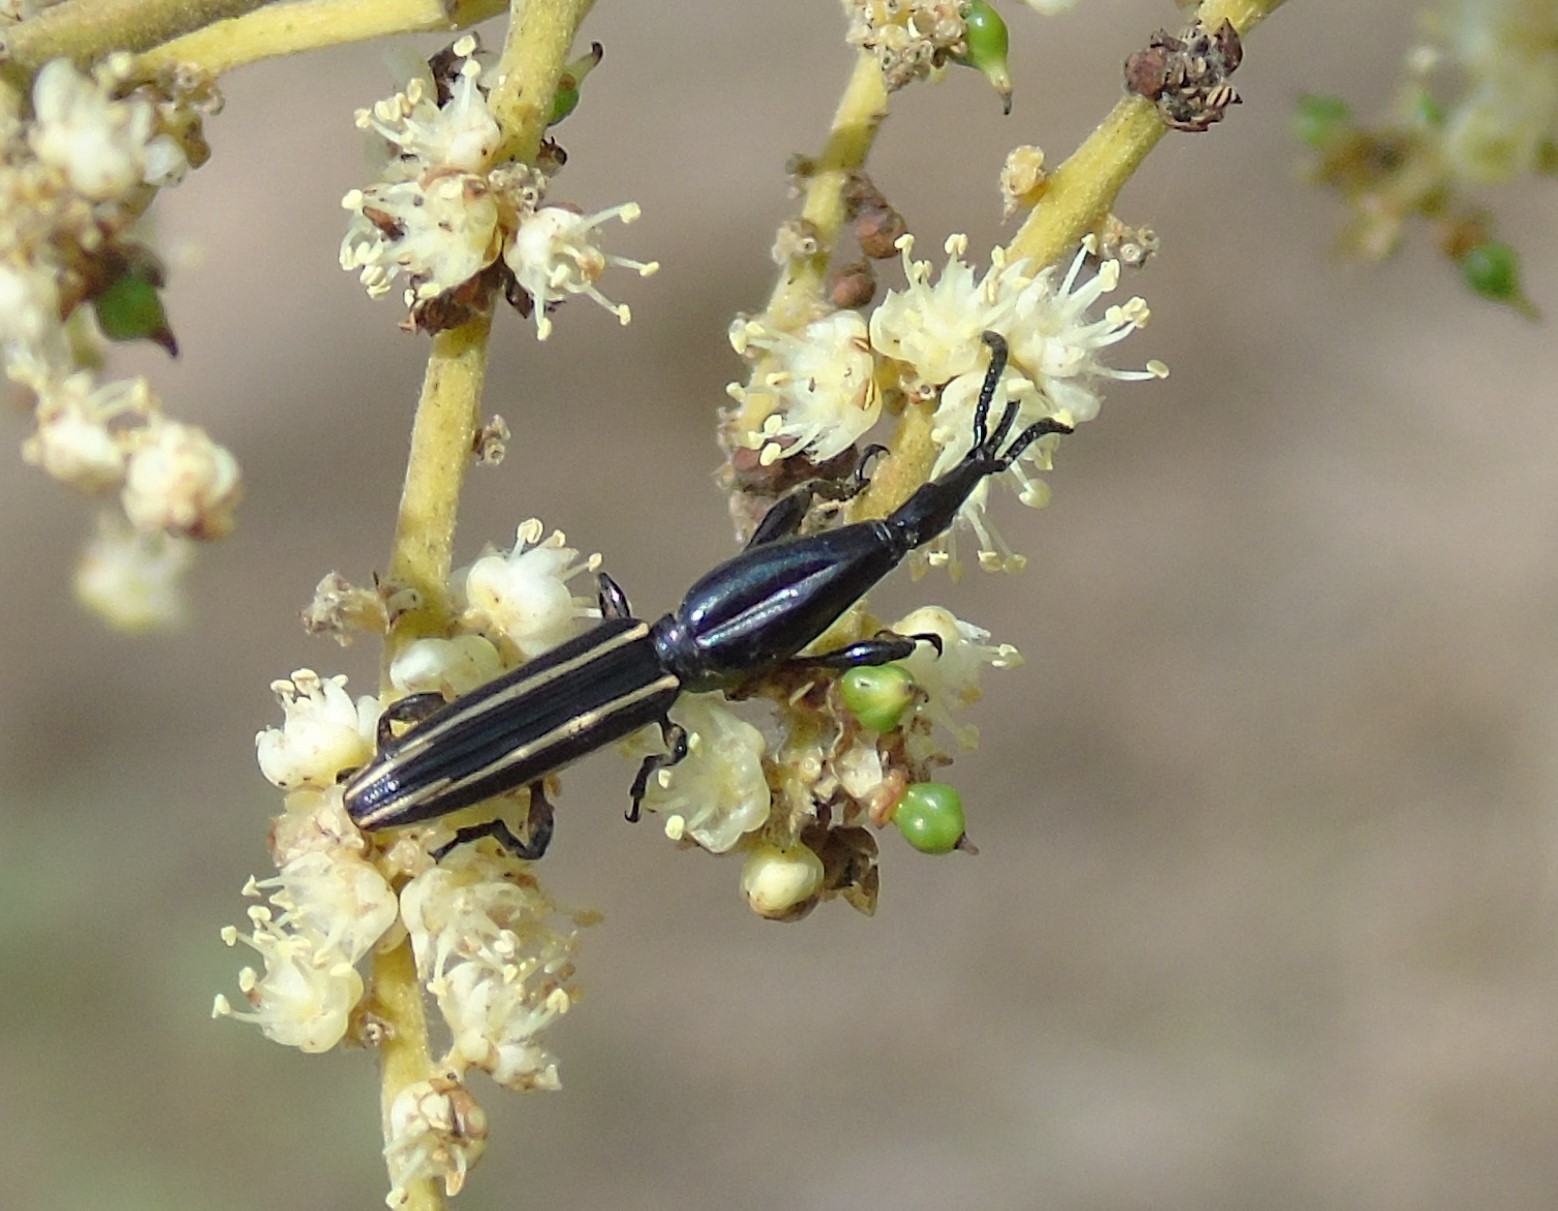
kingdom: Animalia
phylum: Arthropoda
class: Insecta
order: Coleoptera
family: Brentidae
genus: Brentus
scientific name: Brentus
